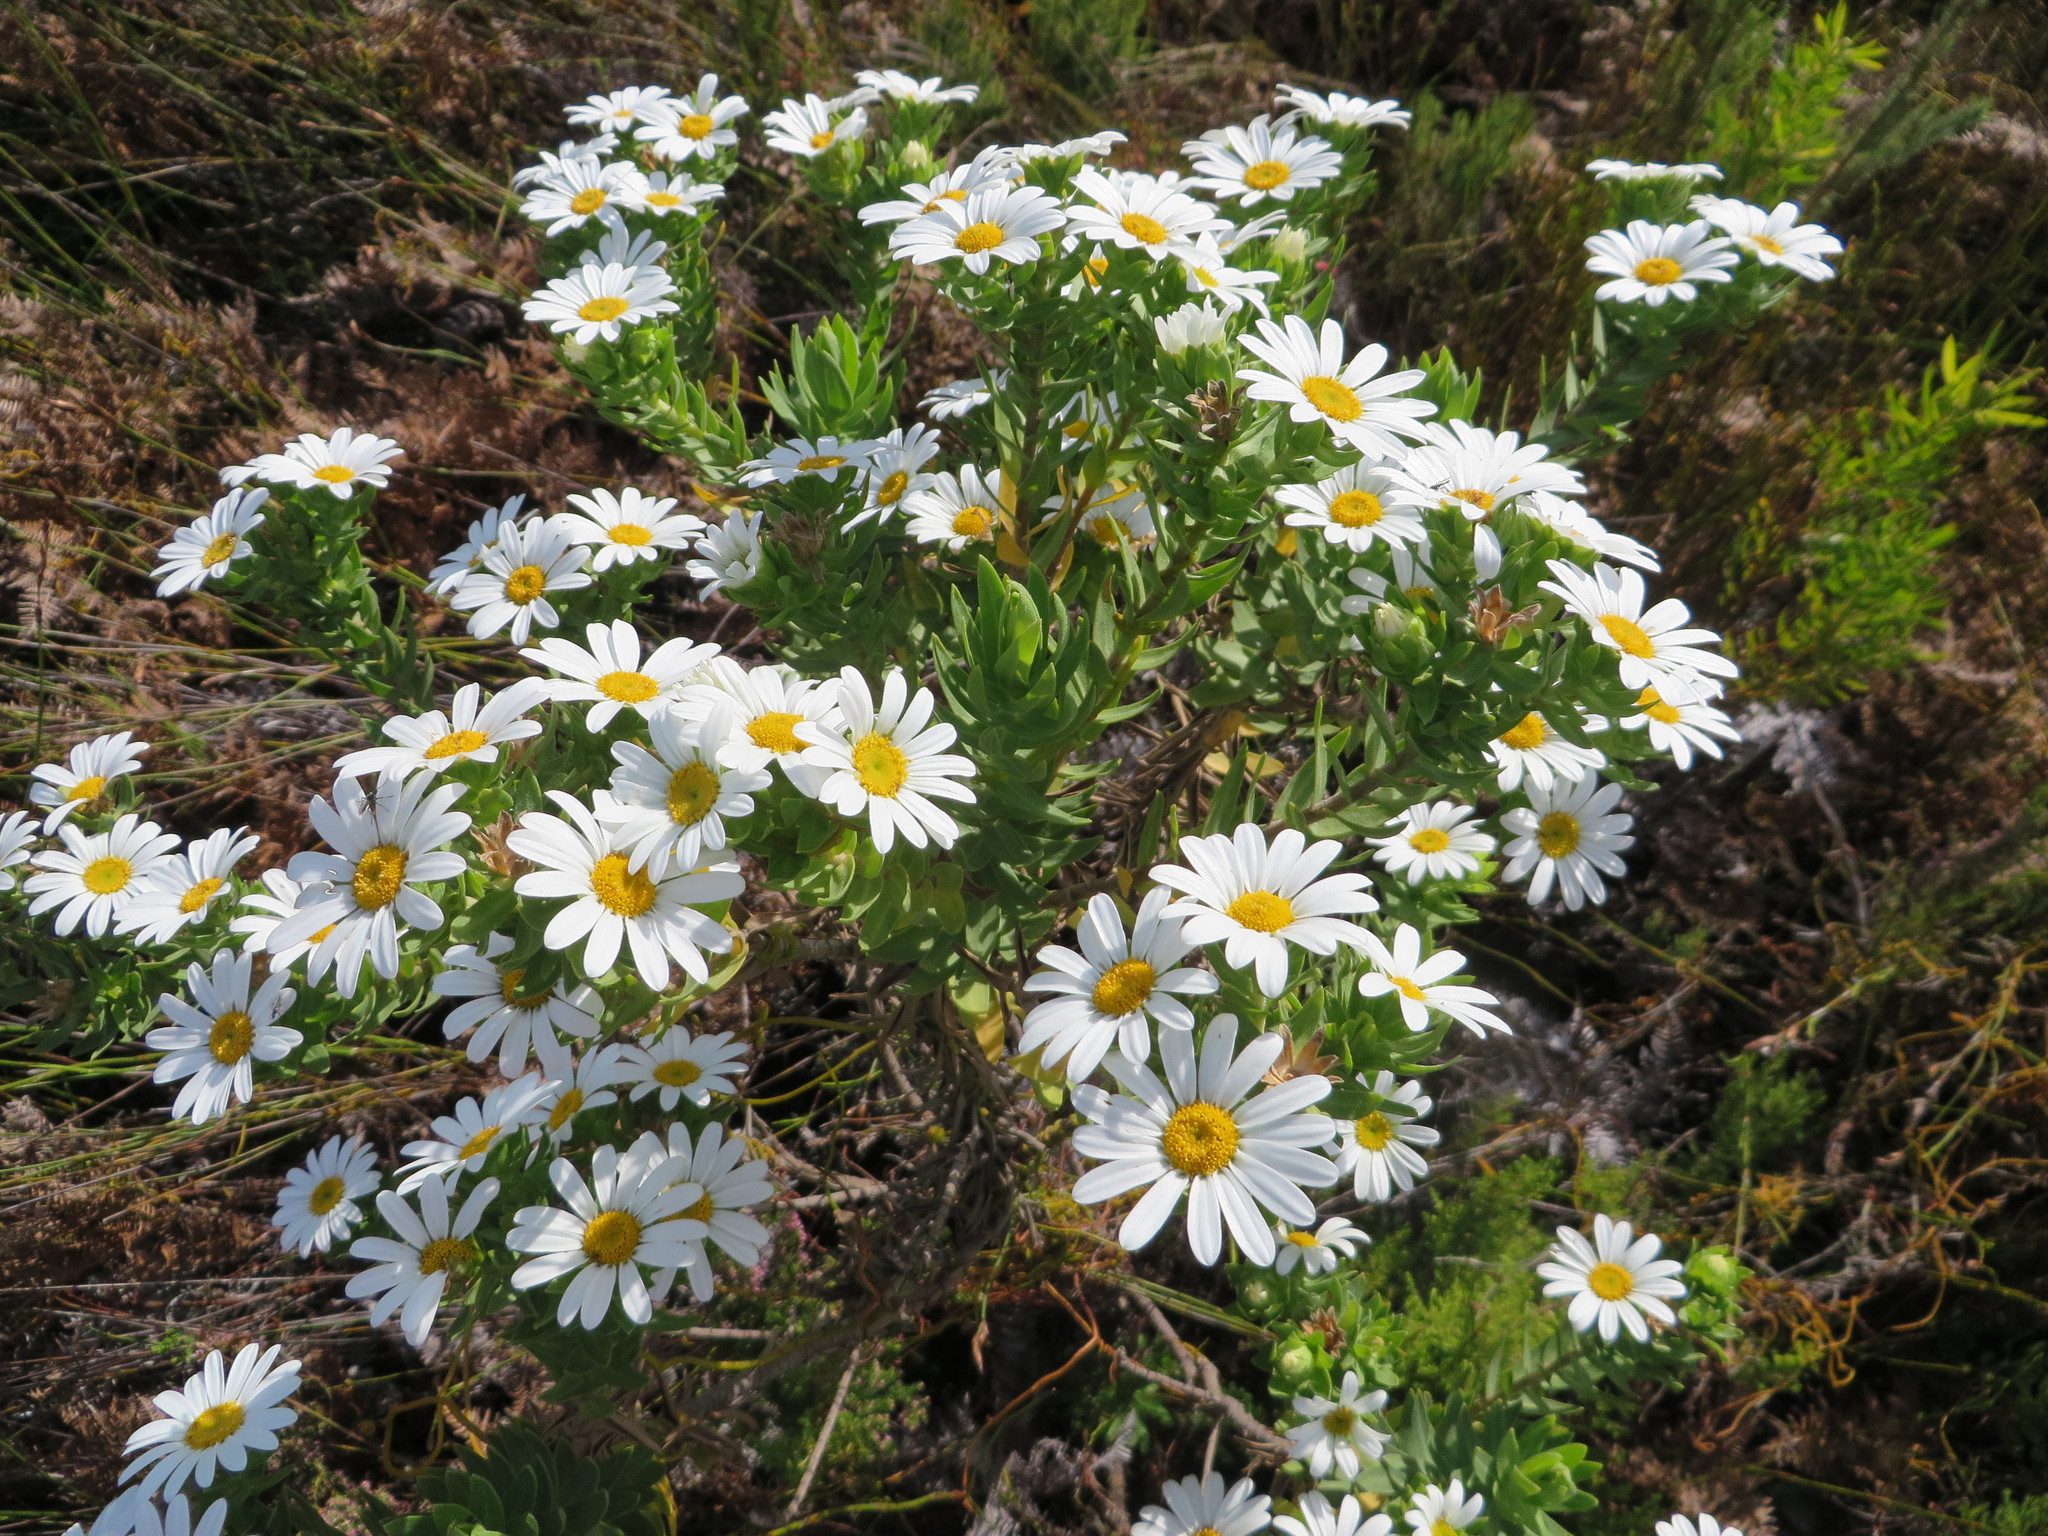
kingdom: Plantae
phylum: Tracheophyta
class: Magnoliopsida
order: Asterales
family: Asteraceae
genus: Osmitopsis
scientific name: Osmitopsis asteriscoides
